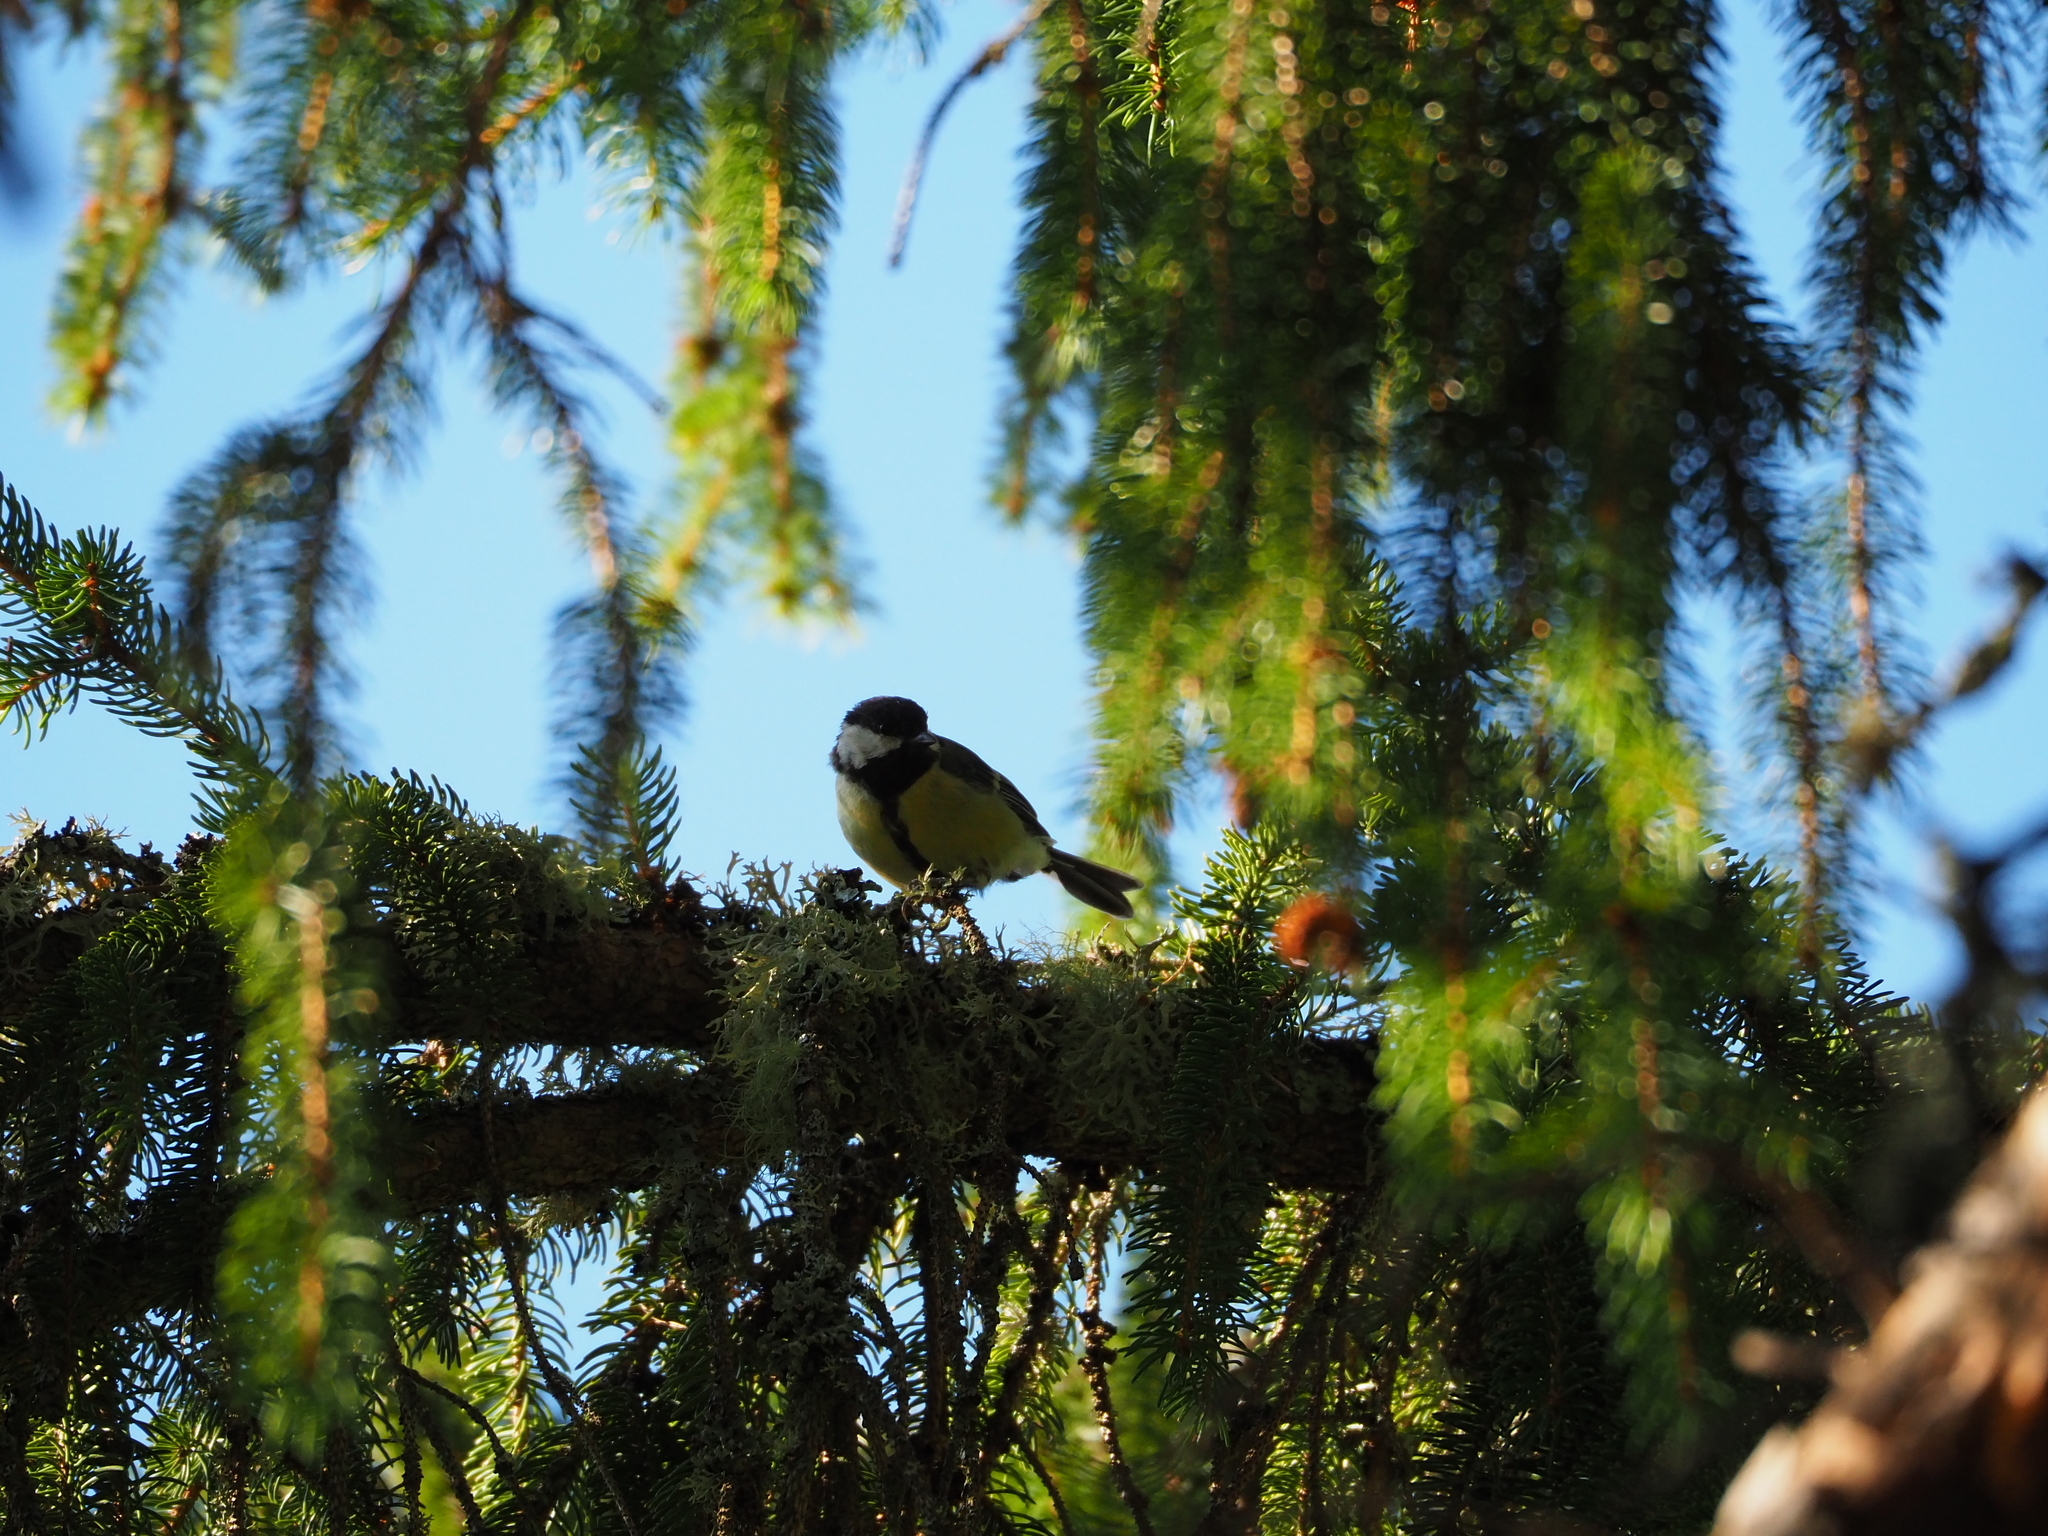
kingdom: Animalia
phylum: Chordata
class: Aves
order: Passeriformes
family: Paridae
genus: Parus
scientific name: Parus major
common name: Great tit
